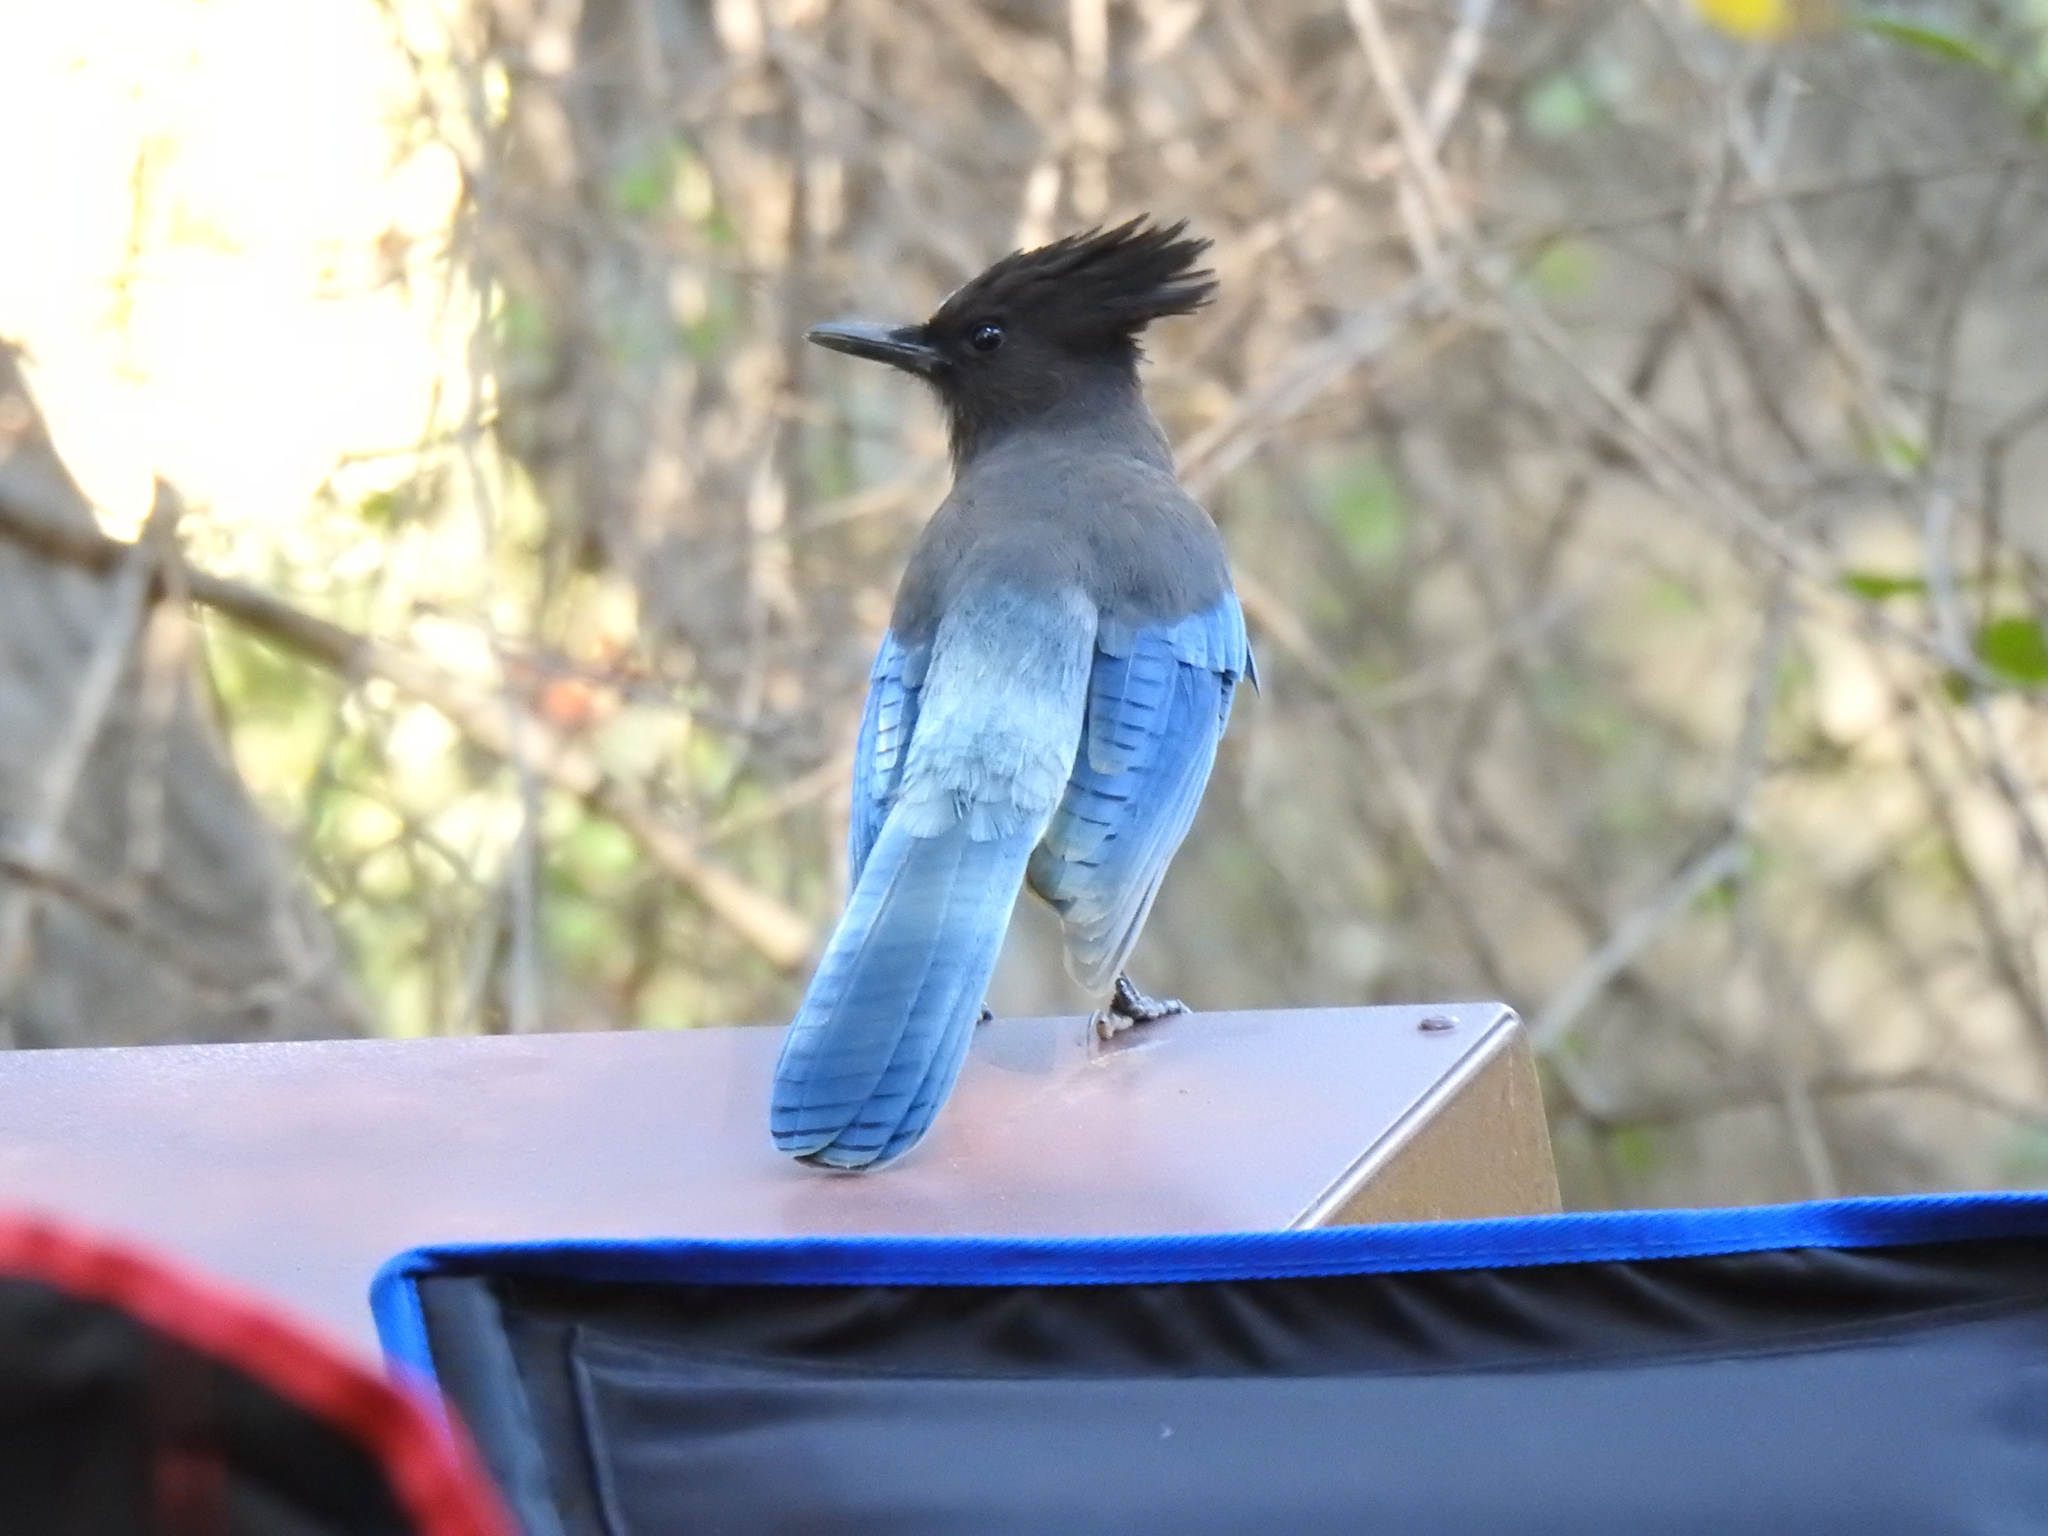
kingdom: Animalia
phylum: Chordata
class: Aves
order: Passeriformes
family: Corvidae
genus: Cyanocitta
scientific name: Cyanocitta stelleri
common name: Steller's jay
